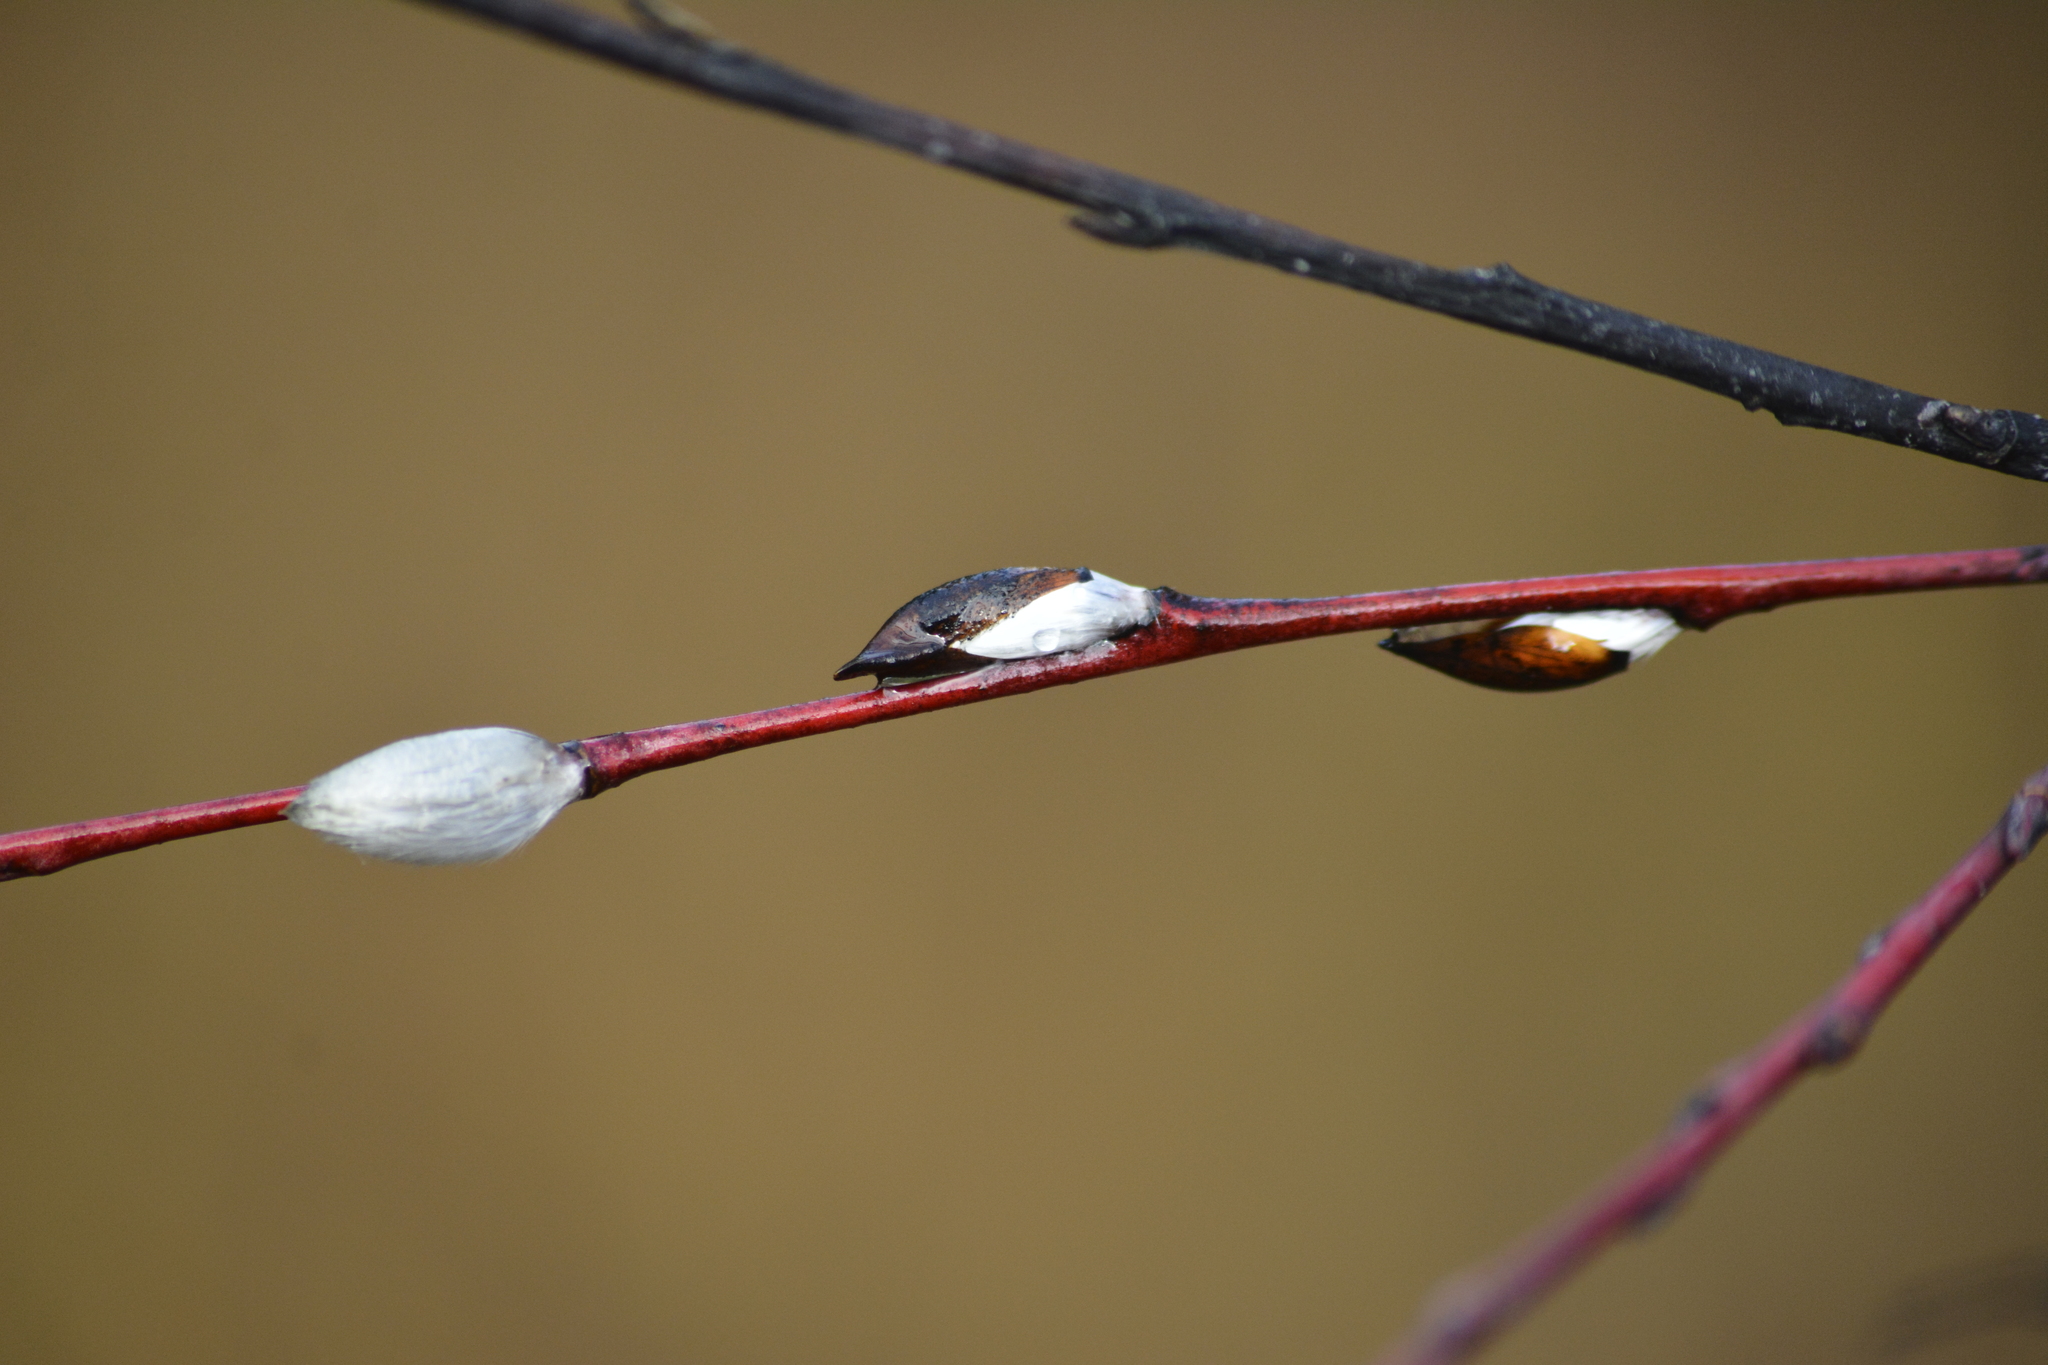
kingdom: Plantae
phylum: Tracheophyta
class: Magnoliopsida
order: Malpighiales
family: Salicaceae
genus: Salix
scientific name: Salix acutifolia
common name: Siberian violet-willow
